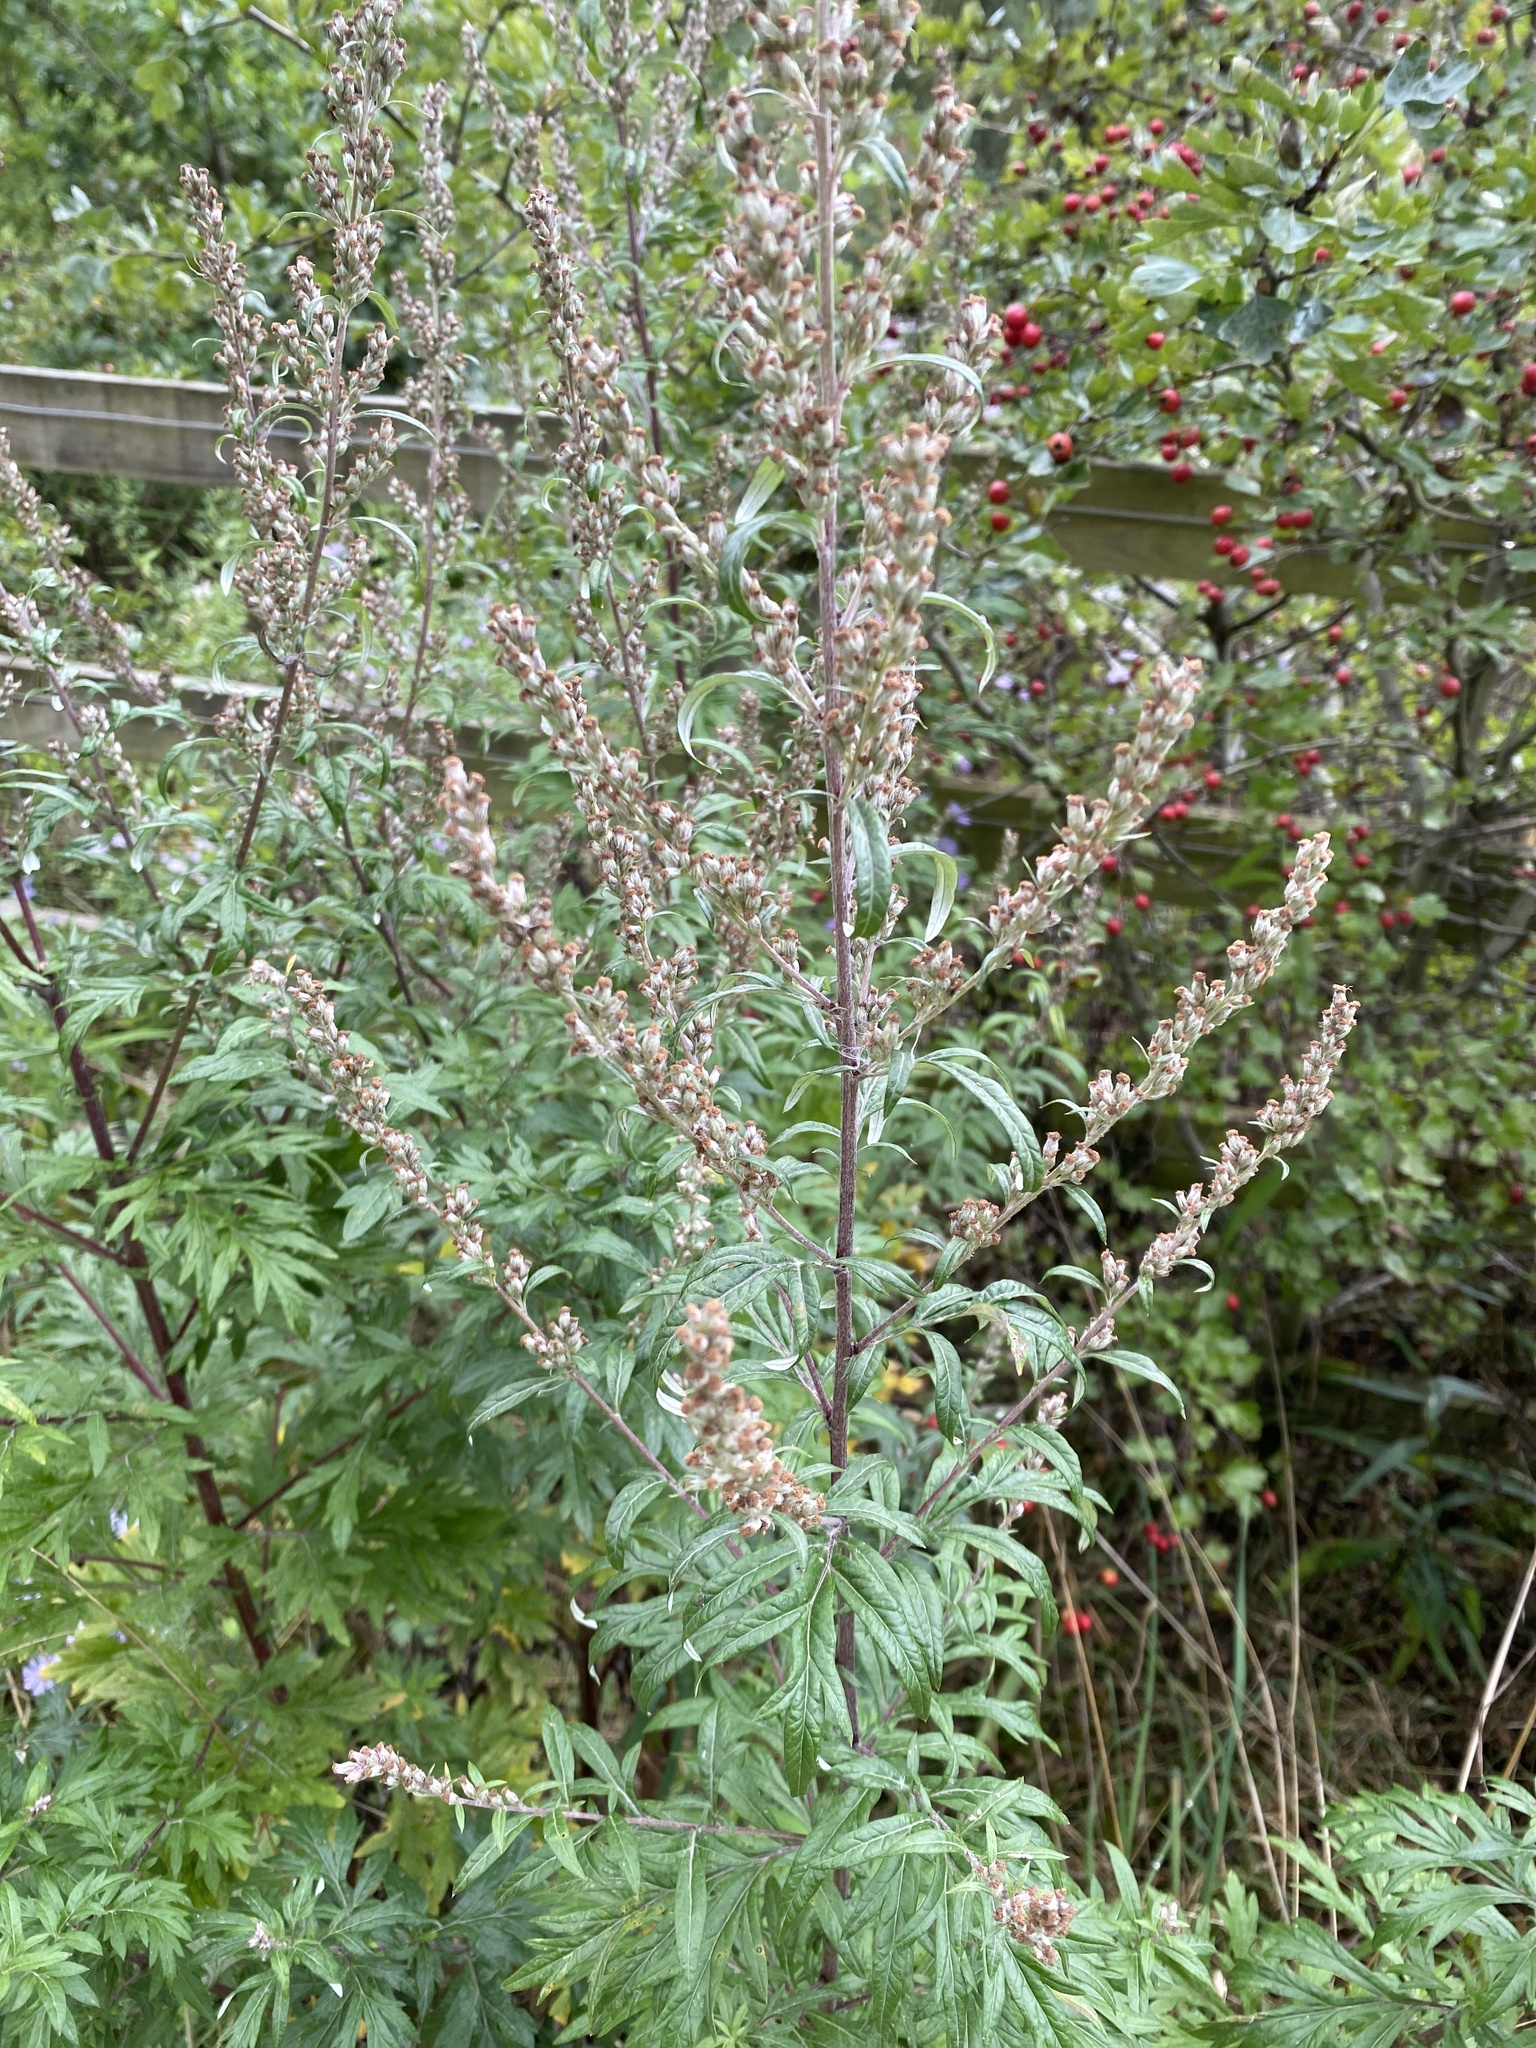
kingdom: Plantae
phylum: Tracheophyta
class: Magnoliopsida
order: Asterales
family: Asteraceae
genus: Artemisia
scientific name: Artemisia vulgaris
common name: Mugwort
